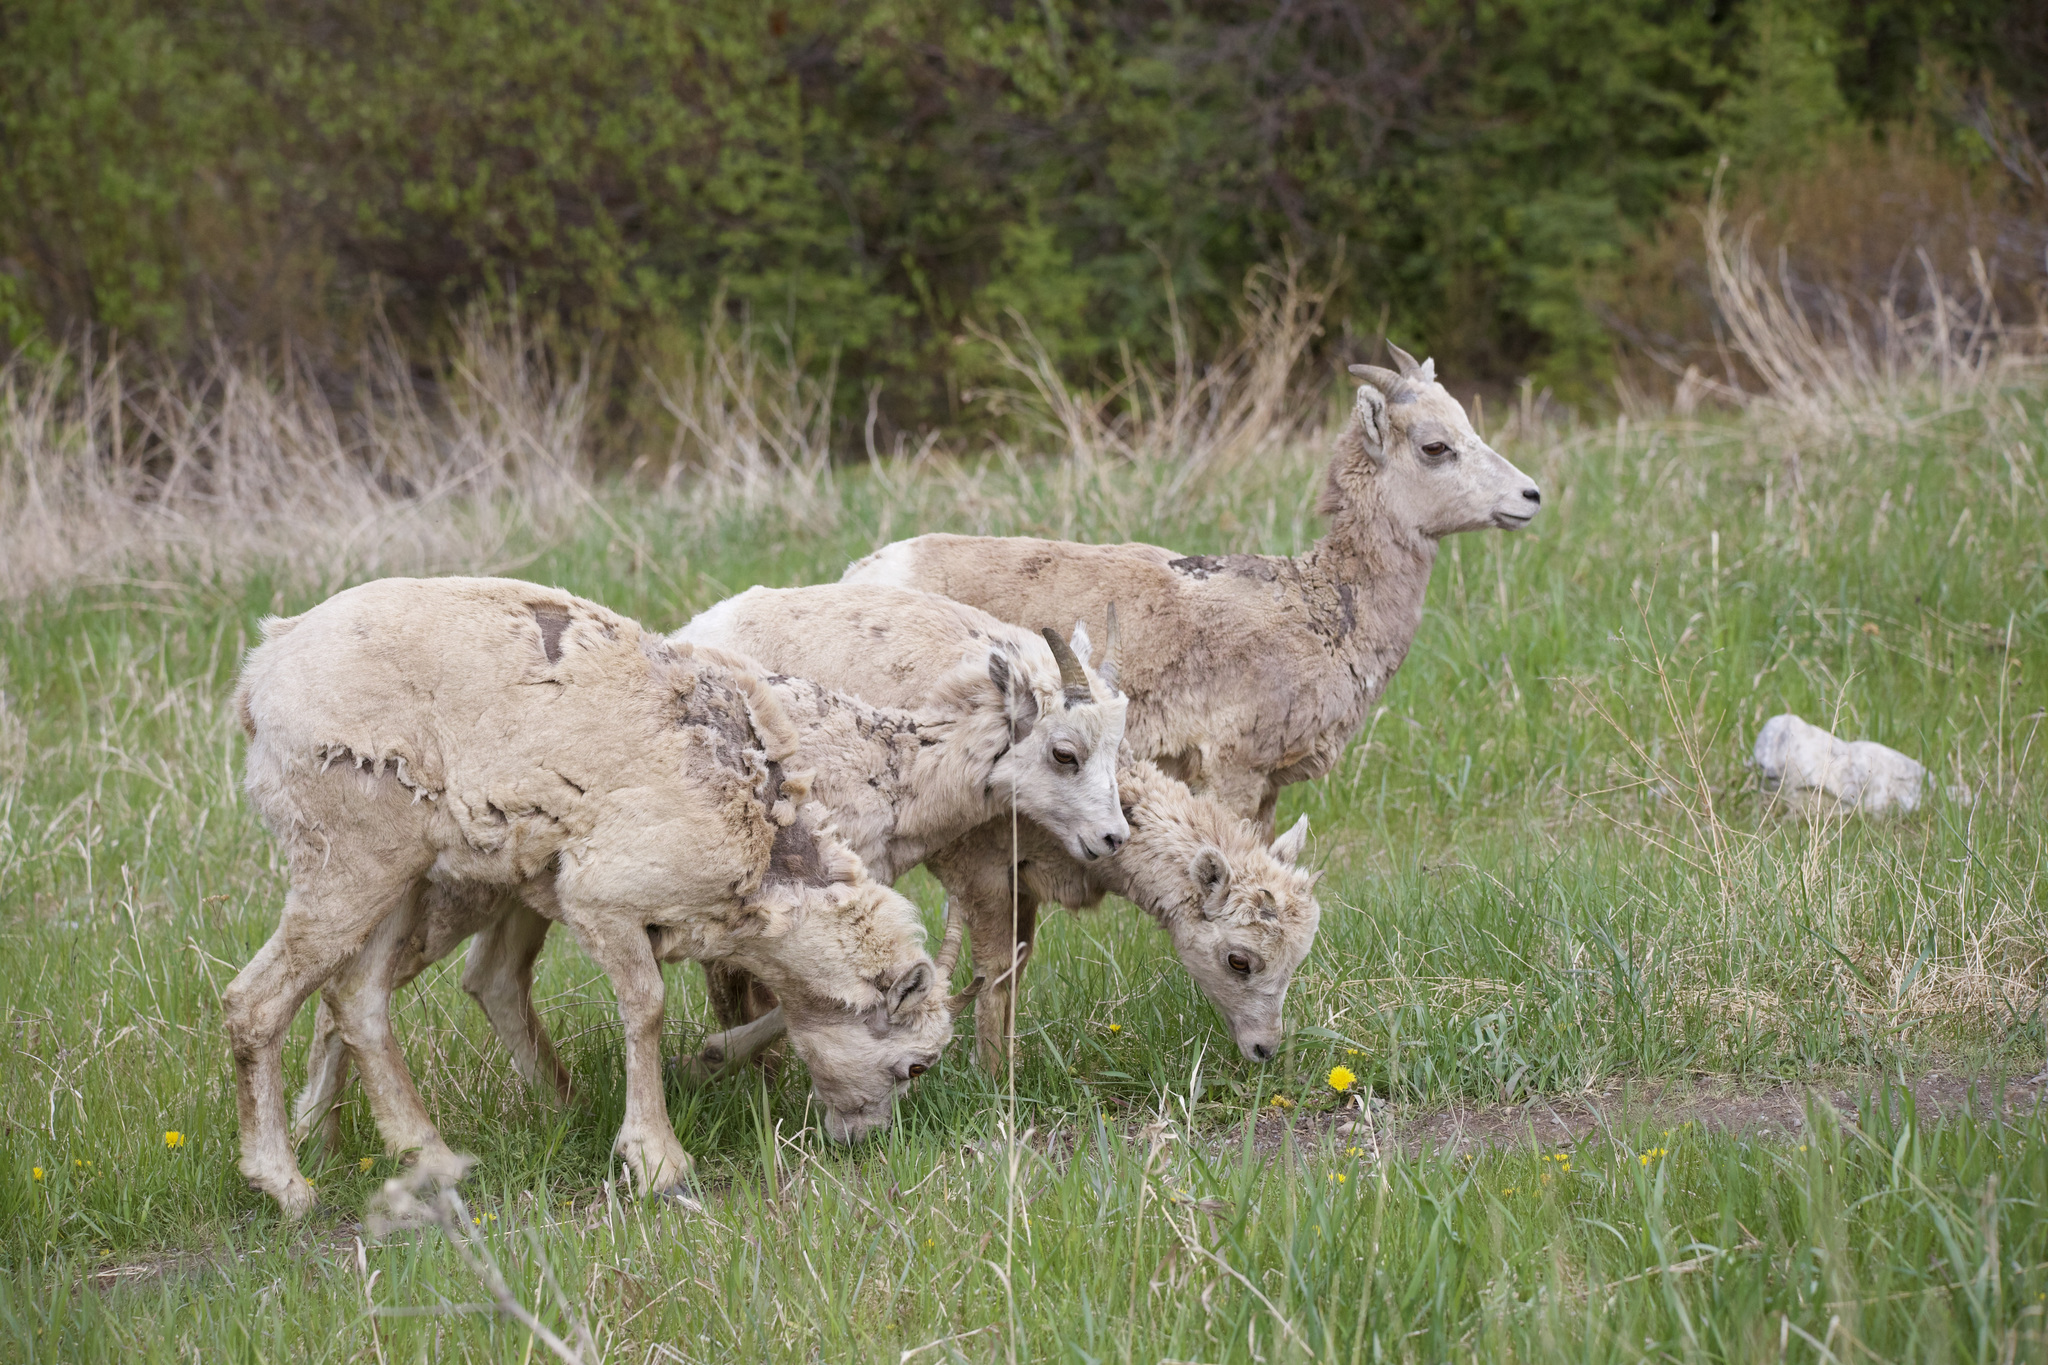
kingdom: Animalia
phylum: Chordata
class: Mammalia
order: Artiodactyla
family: Bovidae
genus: Ovis
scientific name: Ovis canadensis
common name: Bighorn sheep
